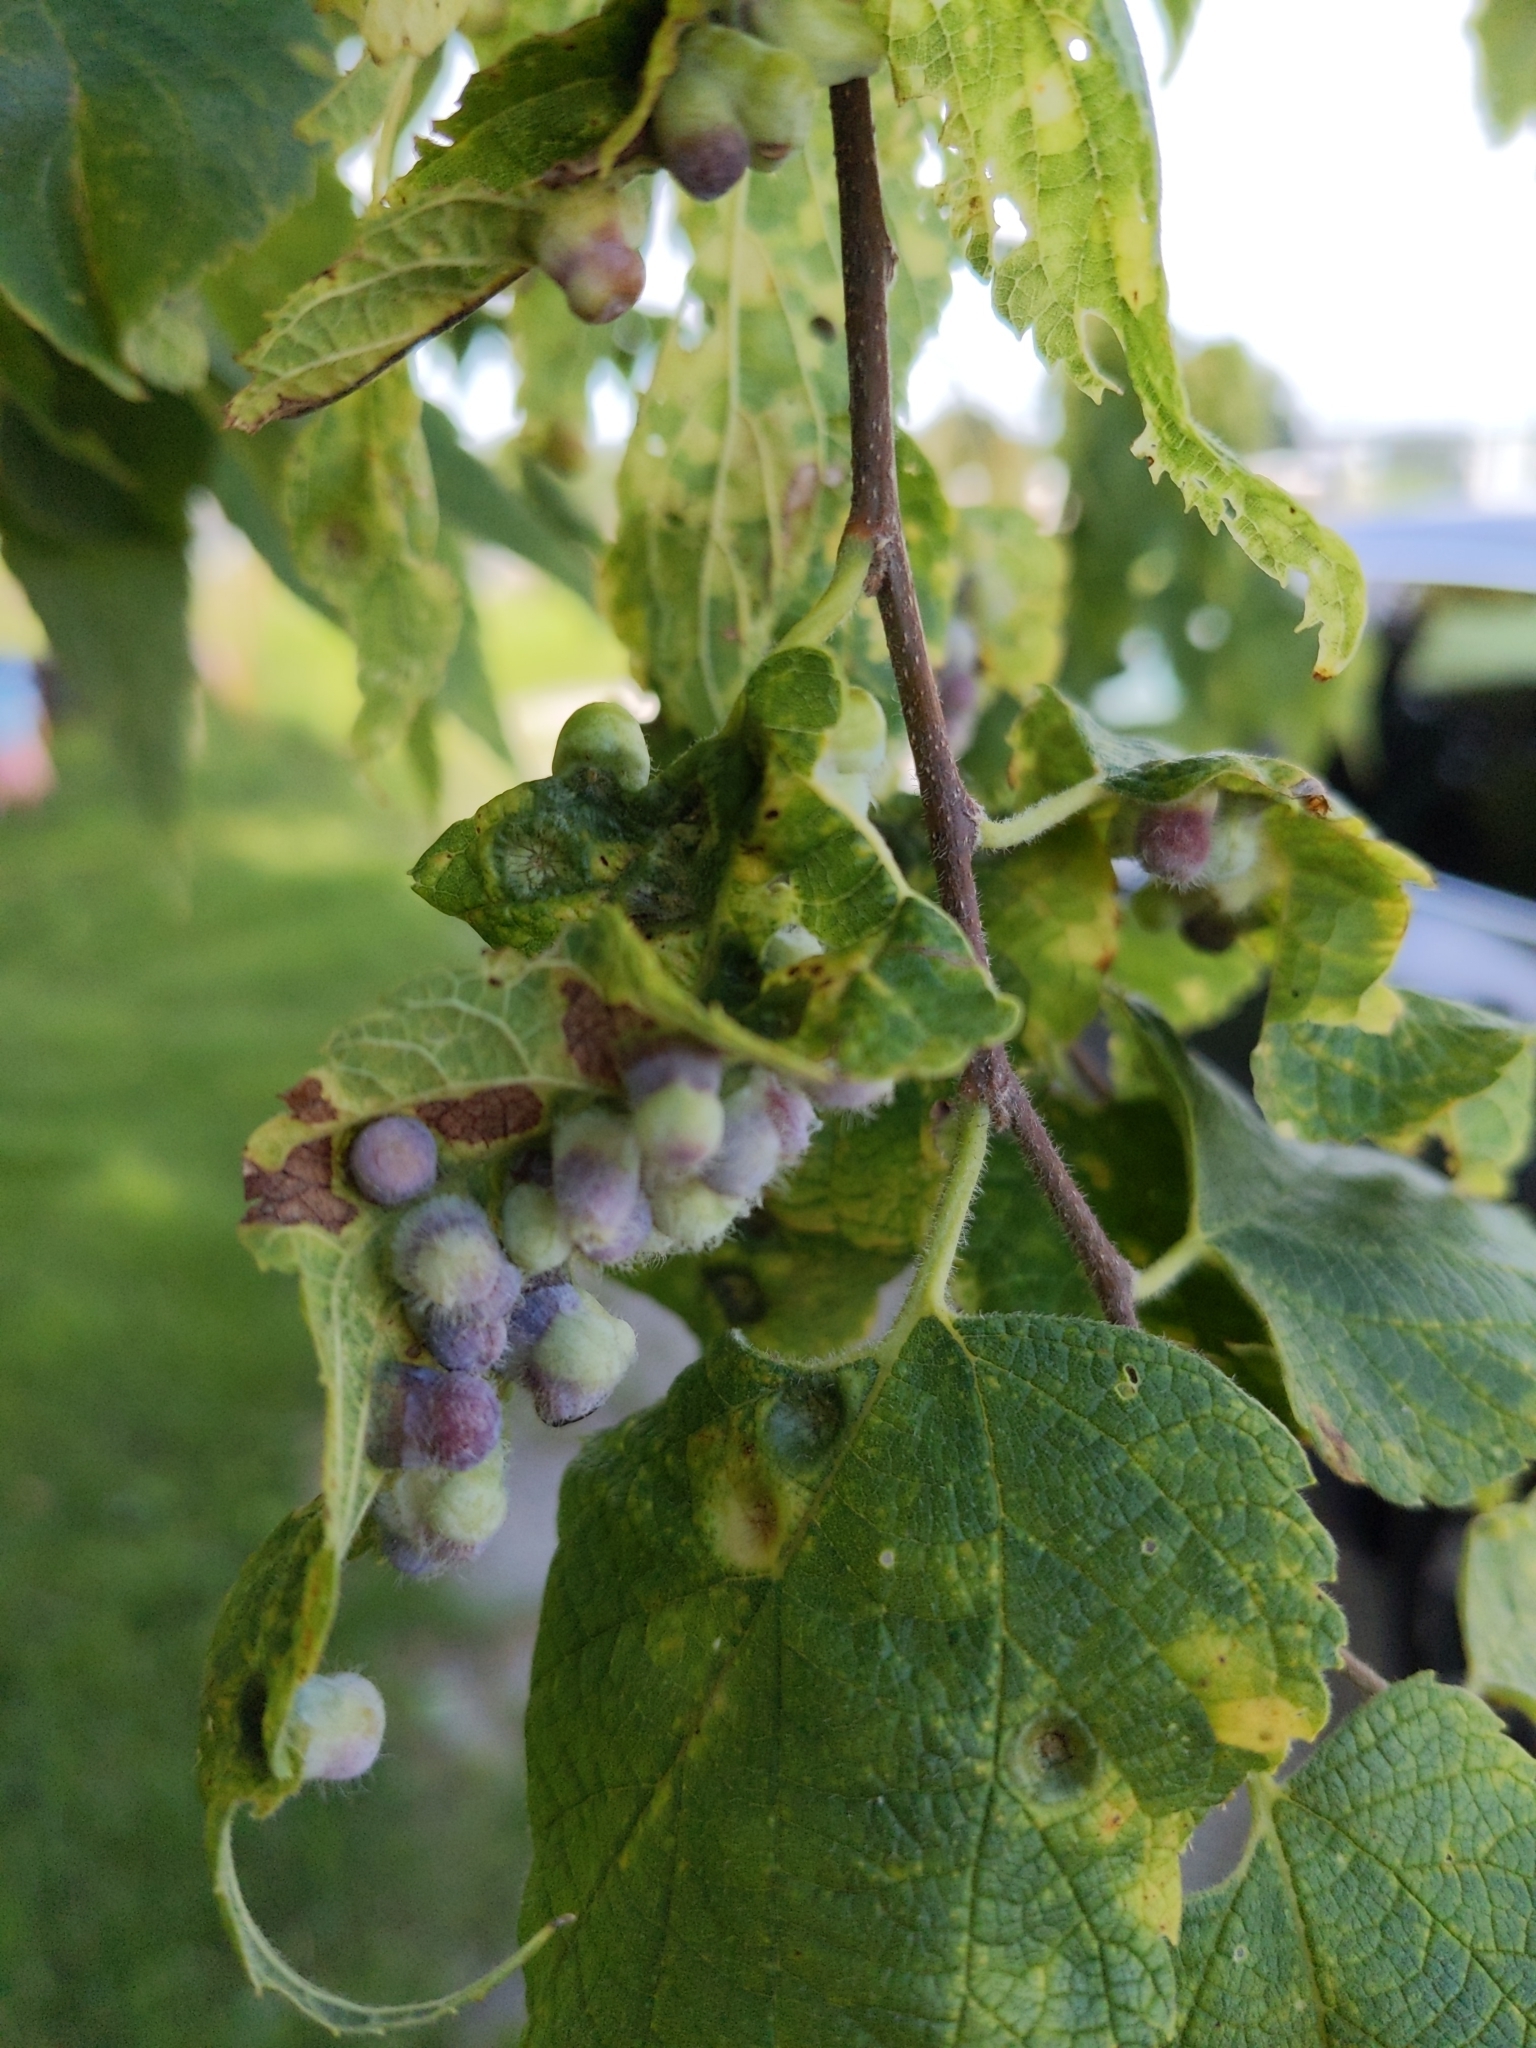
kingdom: Animalia
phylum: Arthropoda
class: Insecta
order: Hemiptera
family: Aphalaridae
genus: Pachypsylla
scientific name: Pachypsylla celtidismamma
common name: Hackberry nipplegall psyllid
